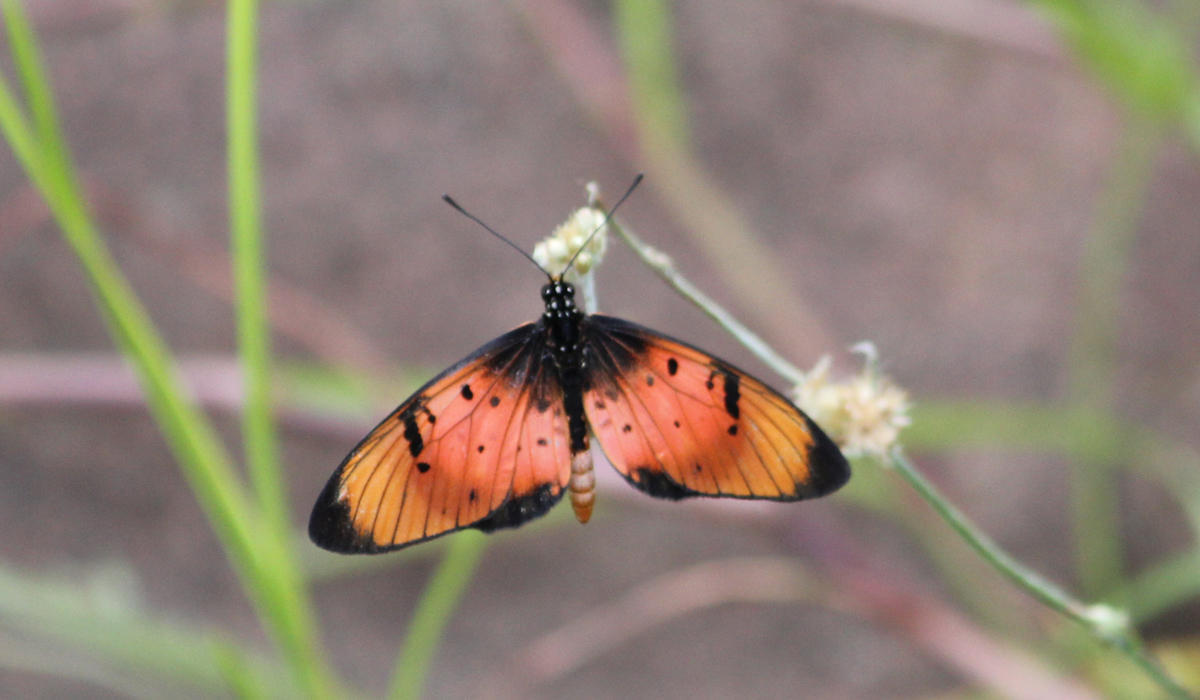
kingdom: Animalia
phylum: Arthropoda
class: Insecta
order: Lepidoptera
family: Nymphalidae
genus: Stephenia
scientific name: Stephenia
